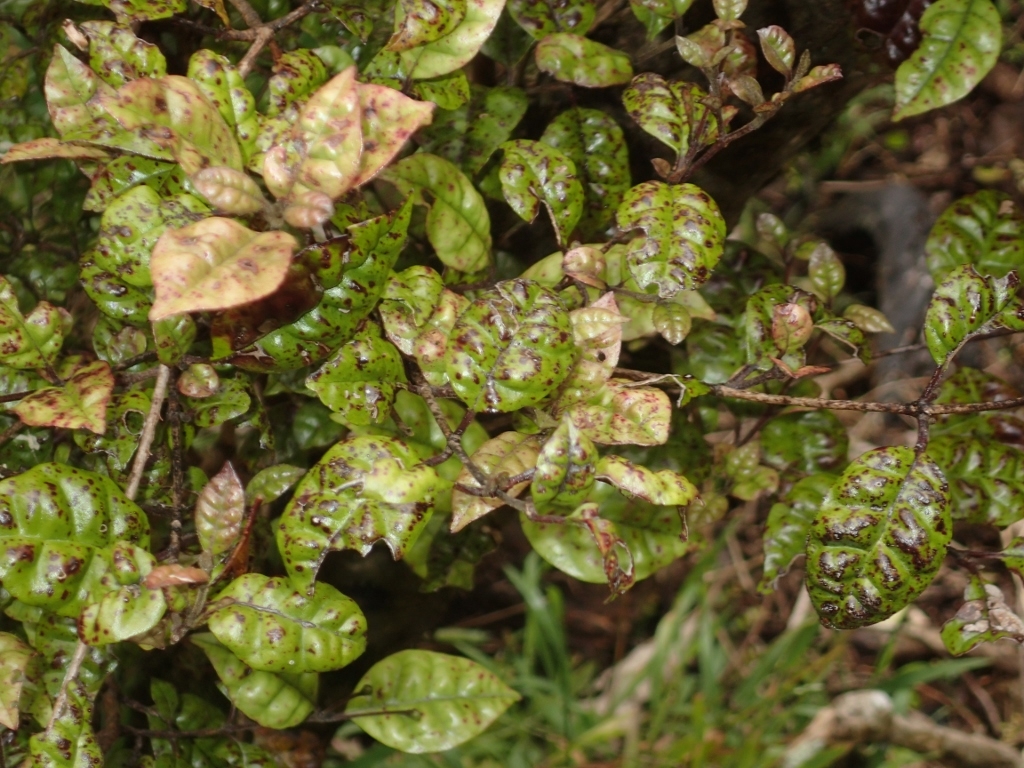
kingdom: Plantae
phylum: Tracheophyta
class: Magnoliopsida
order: Myrtales
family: Myrtaceae
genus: Lophomyrtus
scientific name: Lophomyrtus bullata
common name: Rama rama
